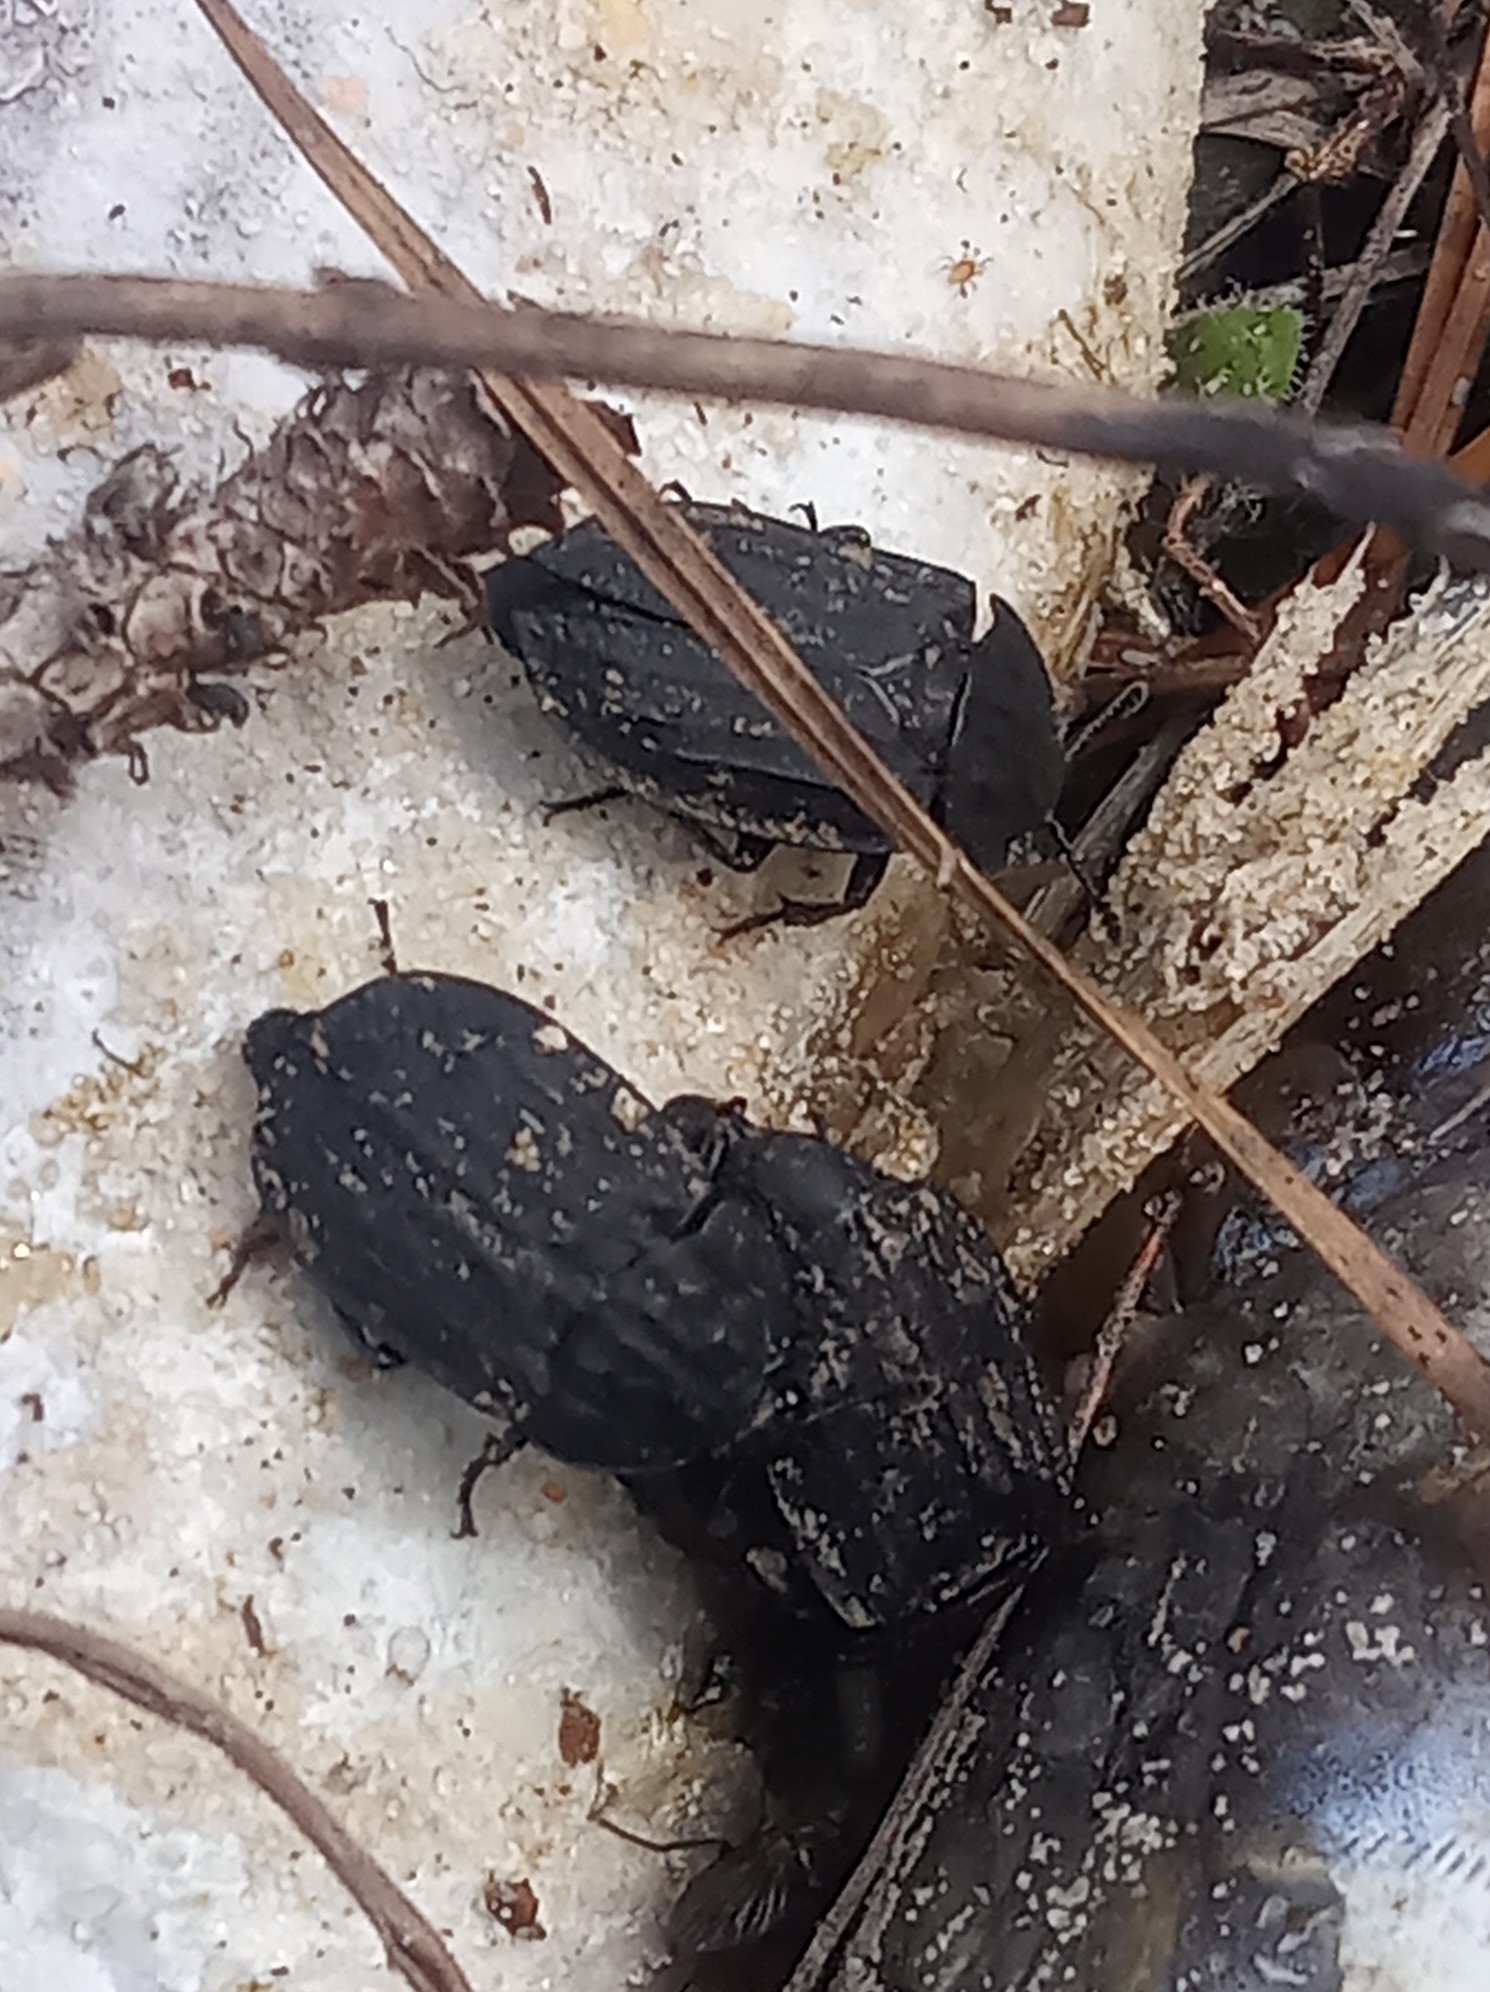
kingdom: Animalia
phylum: Arthropoda
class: Insecta
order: Coleoptera
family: Staphylinidae
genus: Oiceoptoma
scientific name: Oiceoptoma inaequale
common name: Ridged carrion beetle
